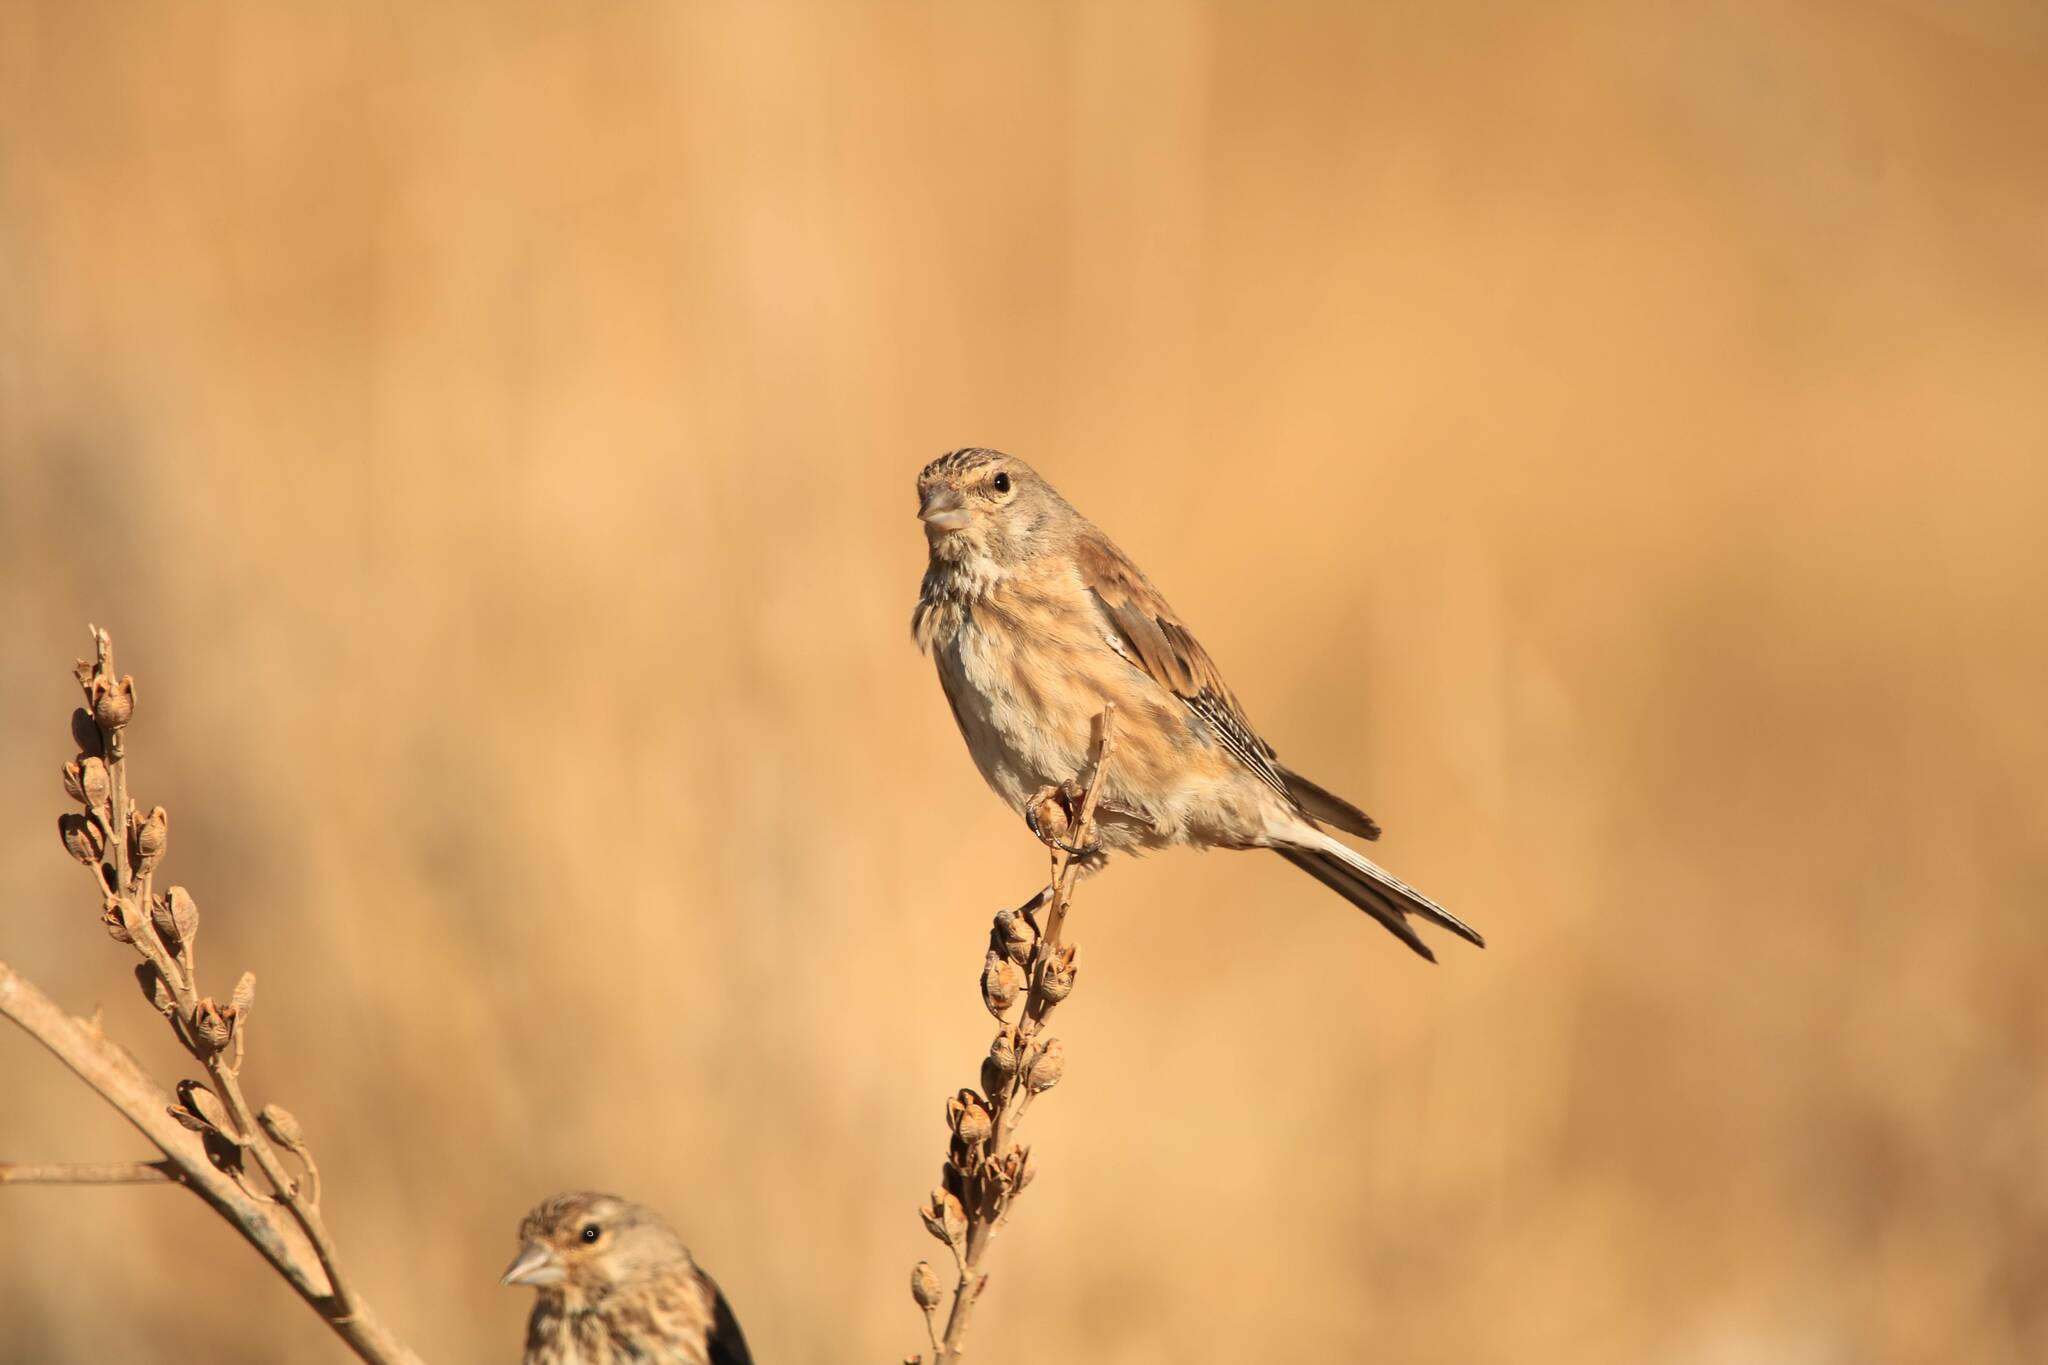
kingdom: Animalia
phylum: Chordata
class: Aves
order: Passeriformes
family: Fringillidae
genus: Linaria
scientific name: Linaria cannabina
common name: Common linnet
